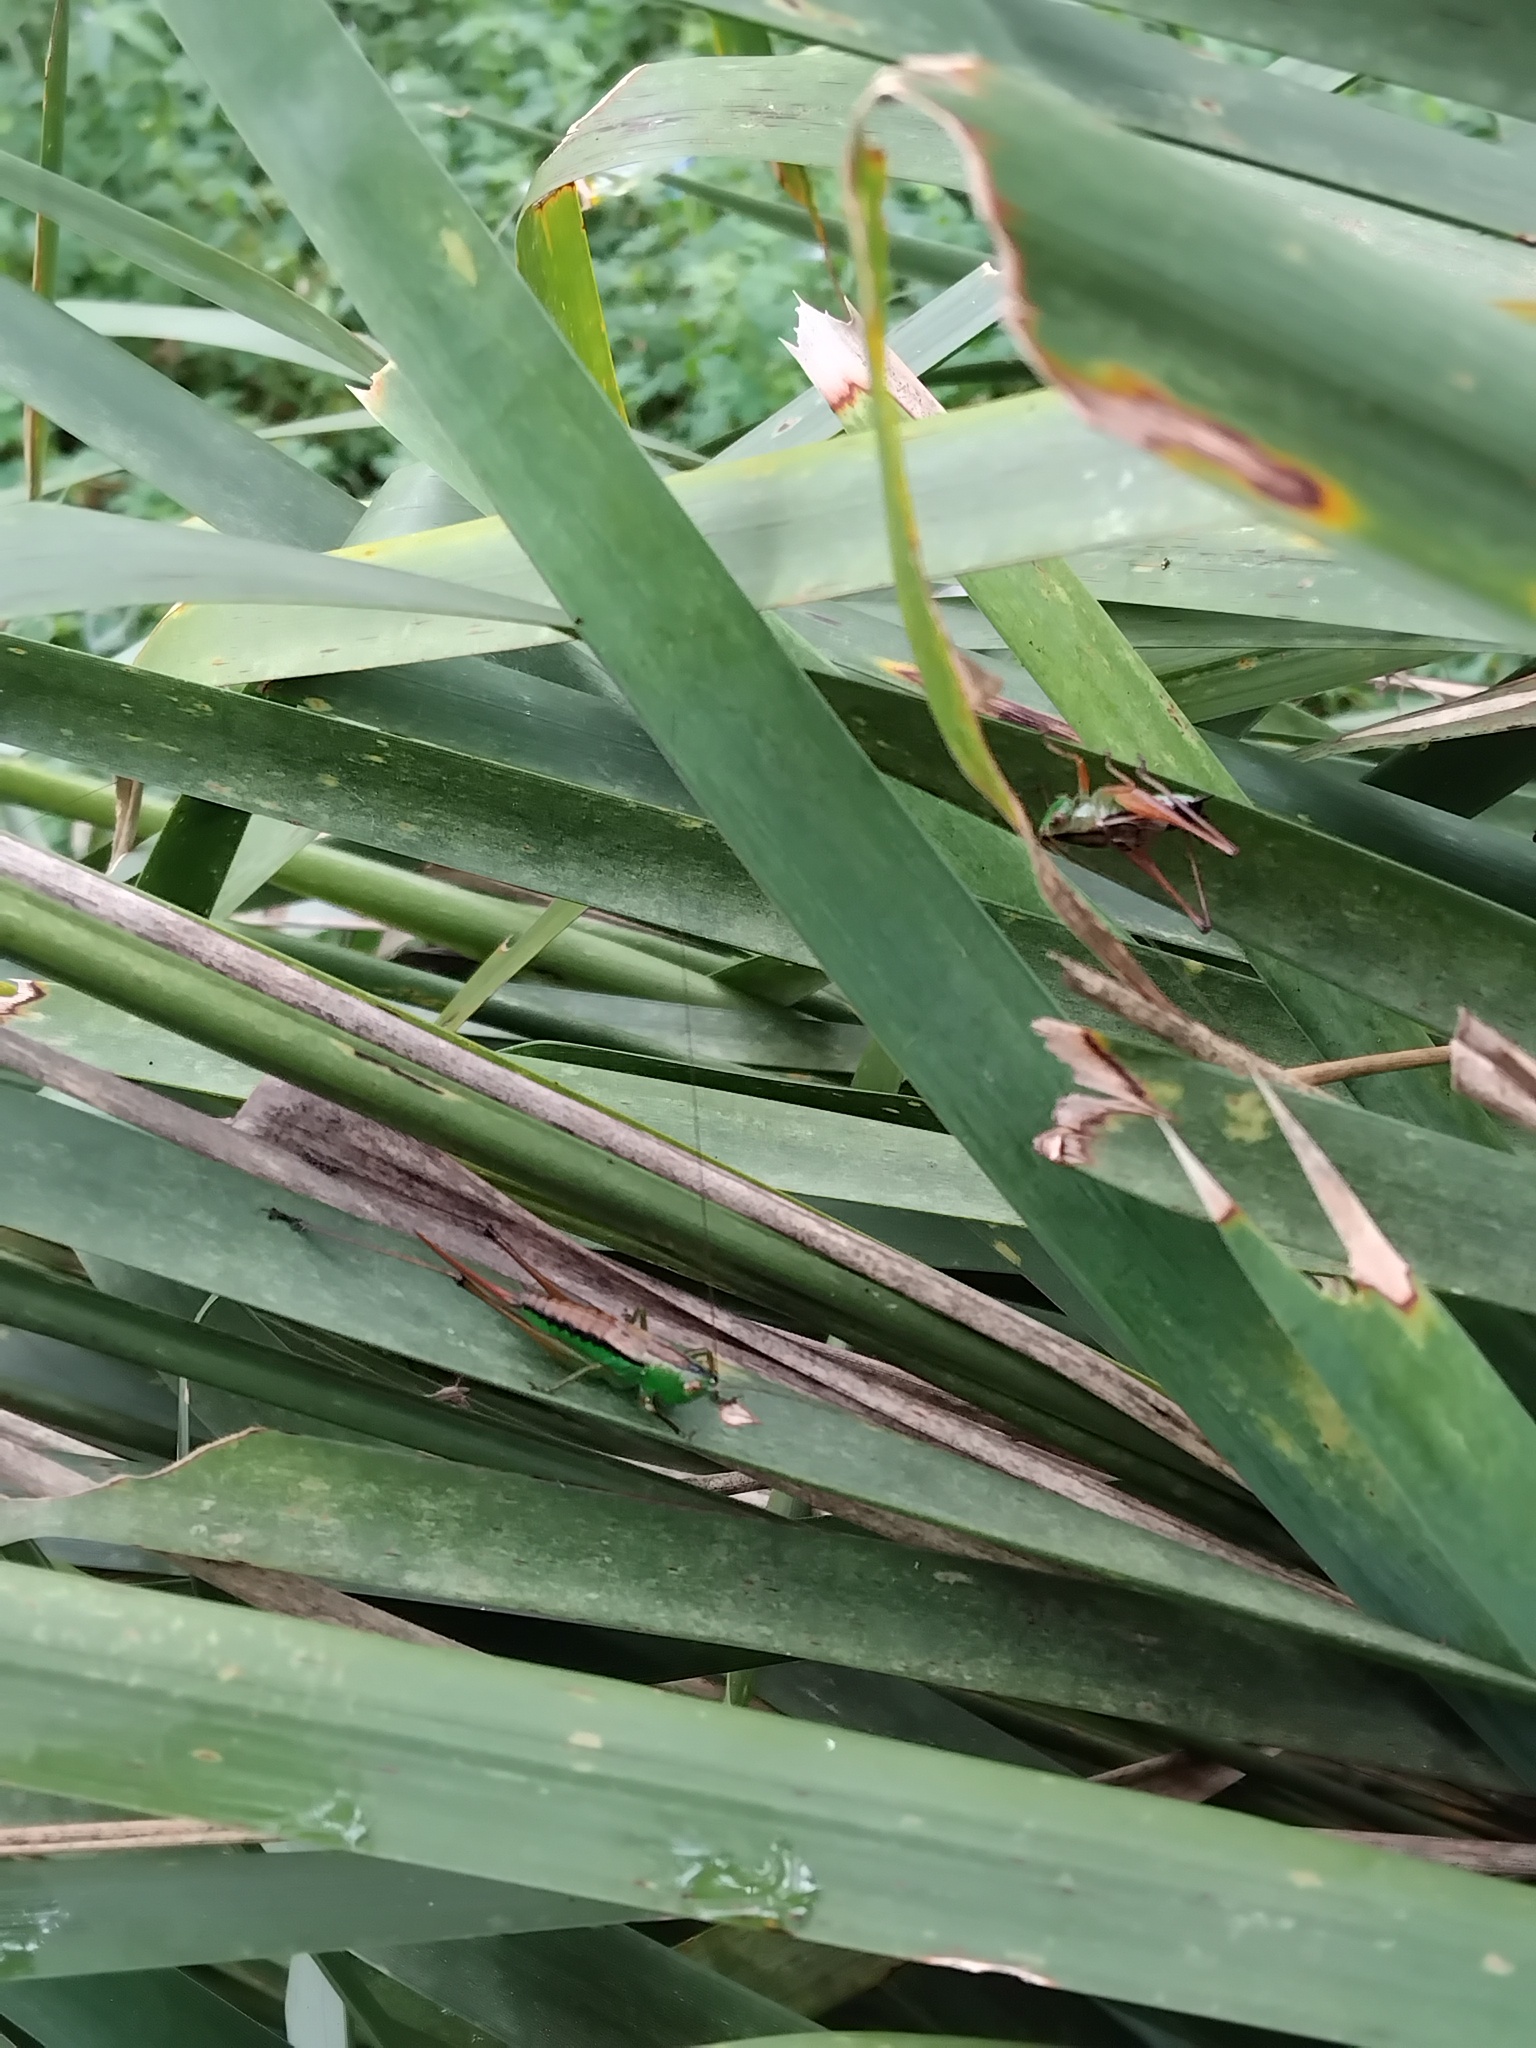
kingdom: Animalia
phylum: Arthropoda
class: Insecta
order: Orthoptera
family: Tettigoniidae
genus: Conocephalus
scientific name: Conocephalus semivittatus
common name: Blackish meadow katydid
